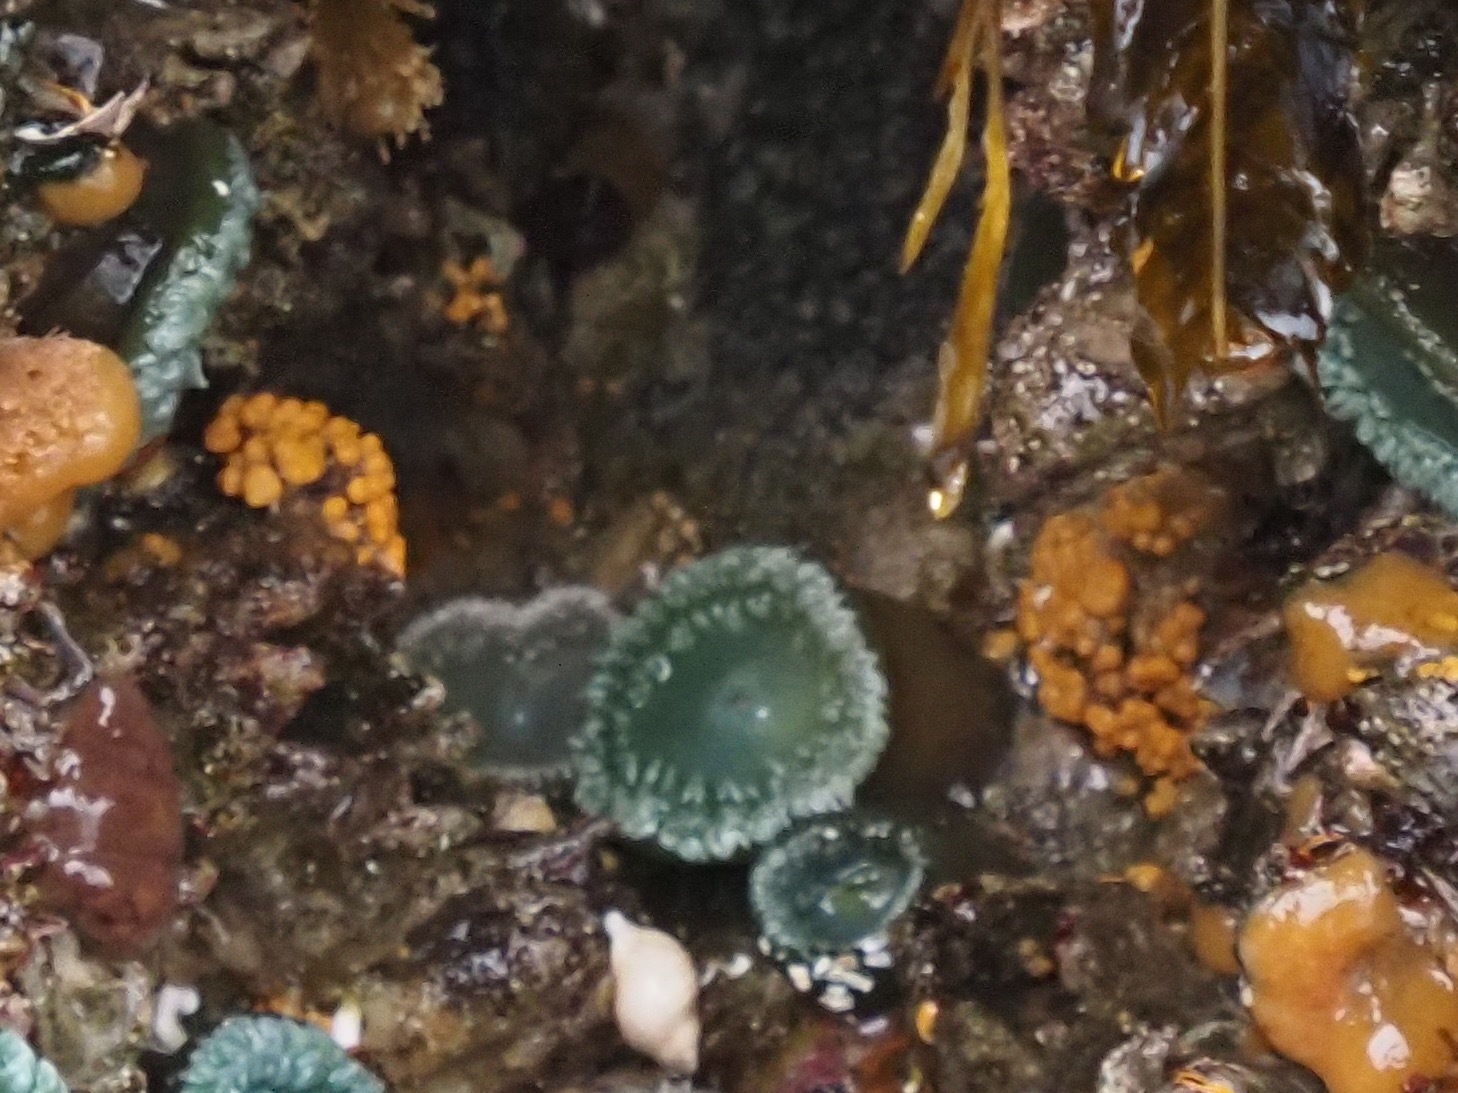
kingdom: Animalia
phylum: Bryozoa
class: Stenolaemata
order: Cyclostomatida
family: Heteroporidae
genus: Heteropora
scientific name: Heteropora pacifica
